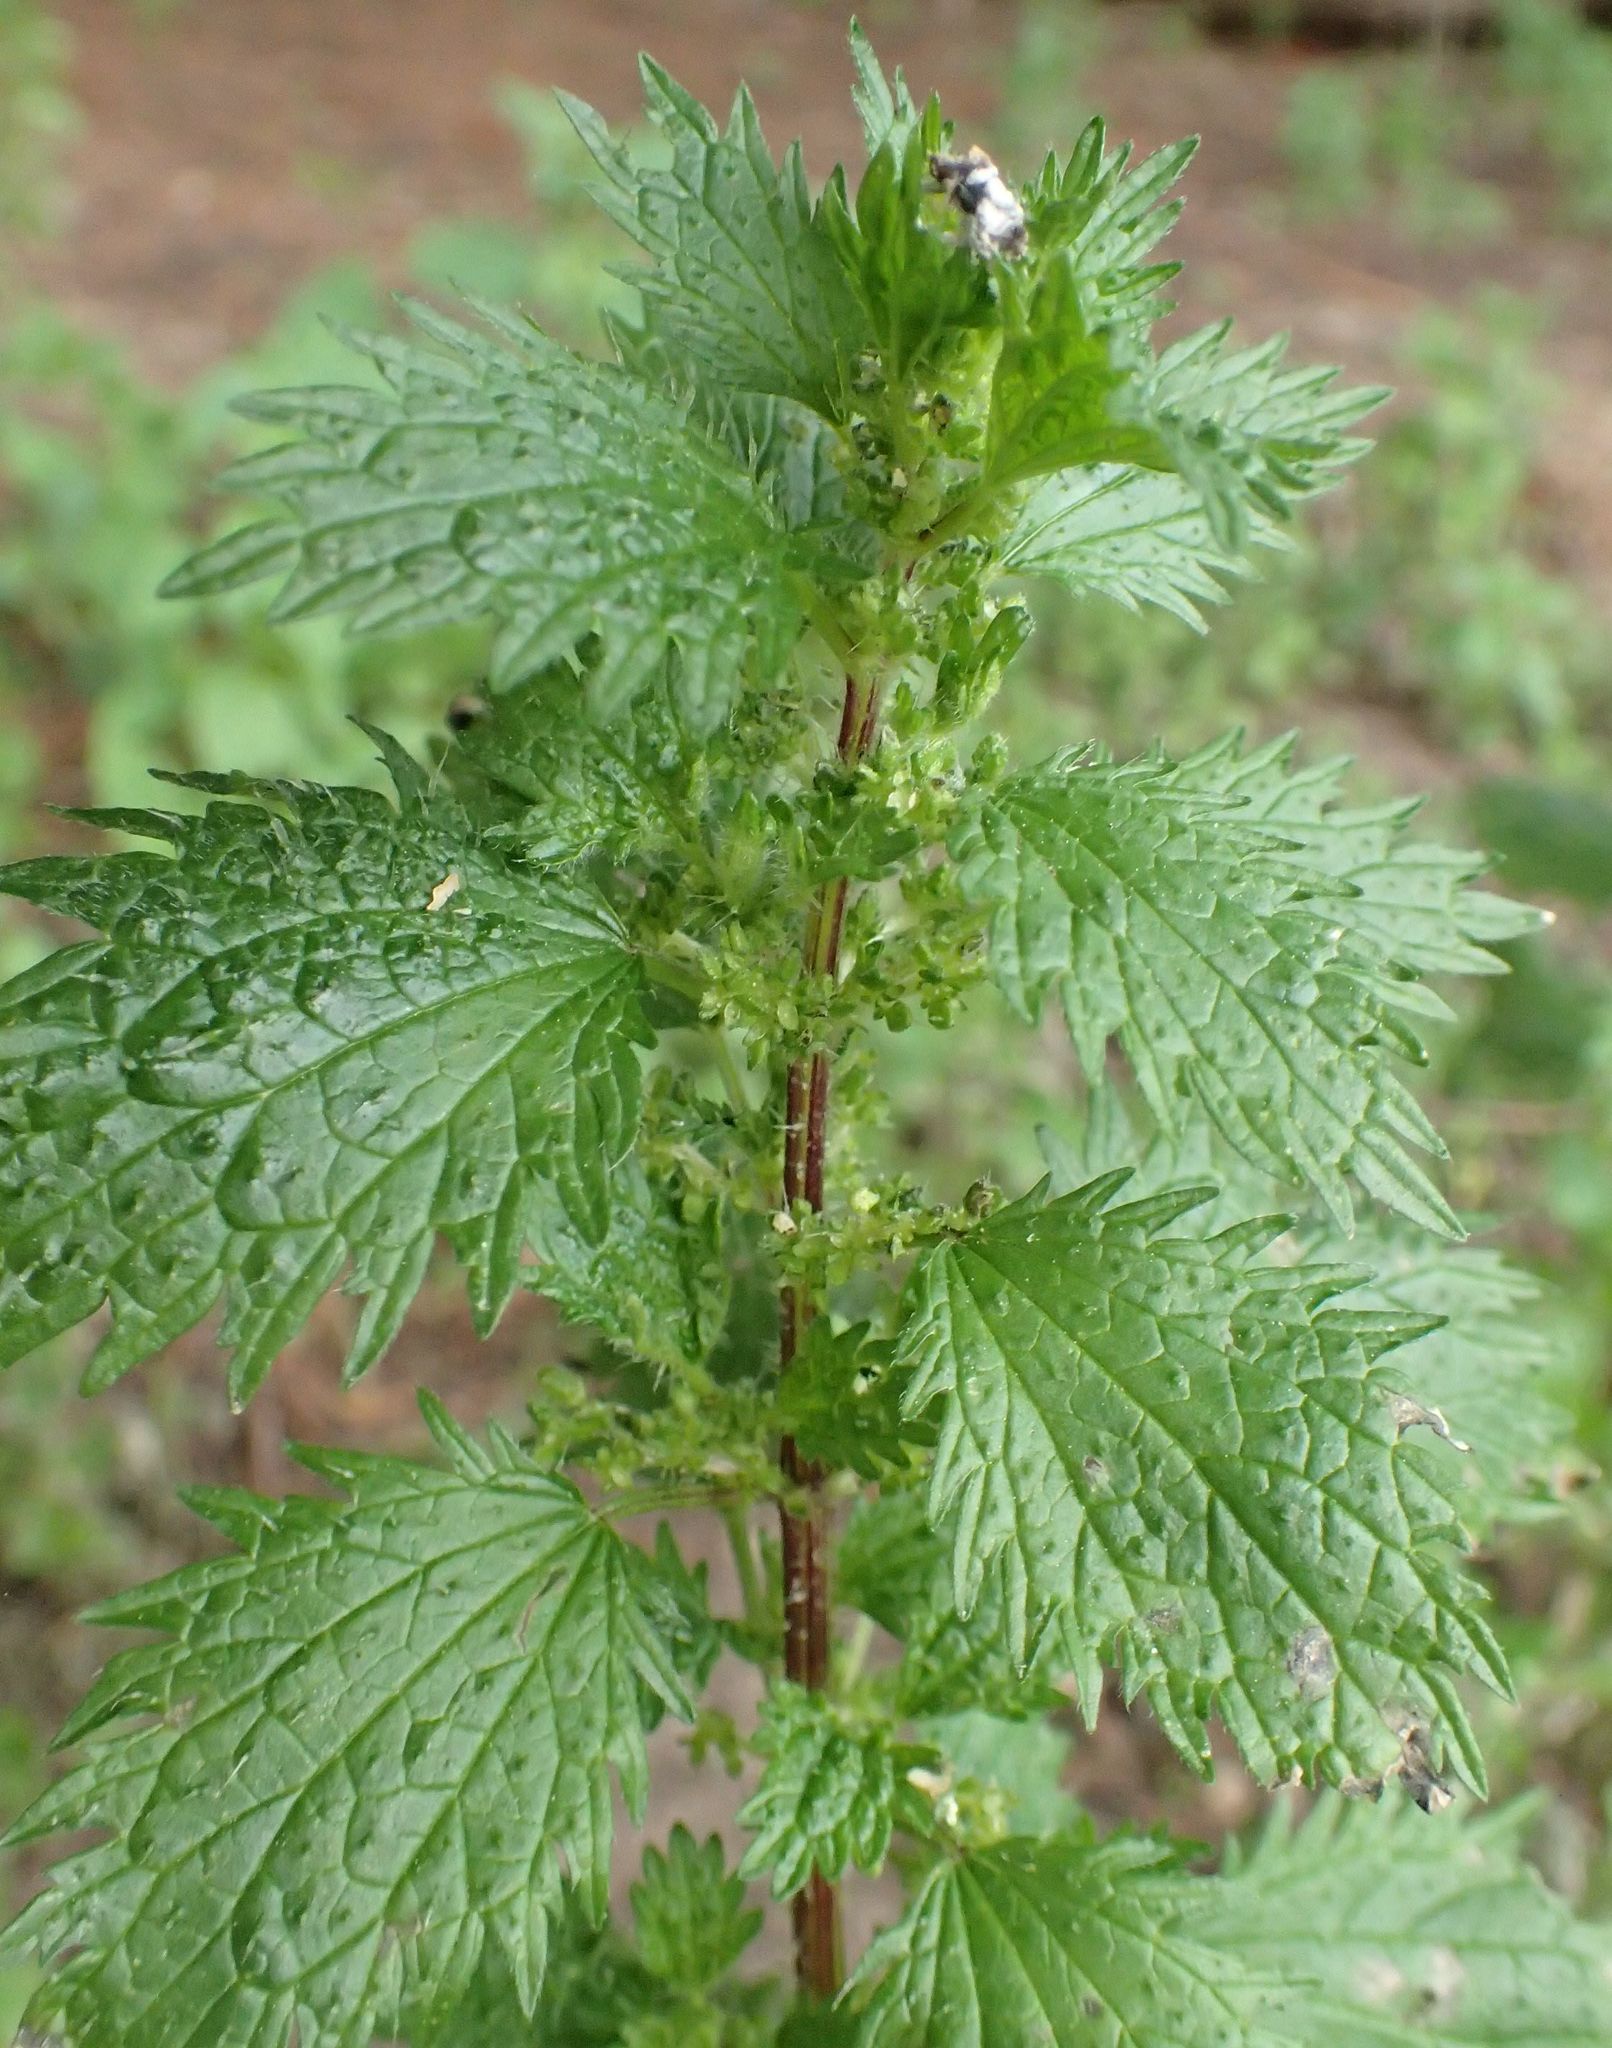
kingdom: Plantae
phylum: Tracheophyta
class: Magnoliopsida
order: Rosales
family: Urticaceae
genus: Urtica
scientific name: Urtica urens
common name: Dwarf nettle
